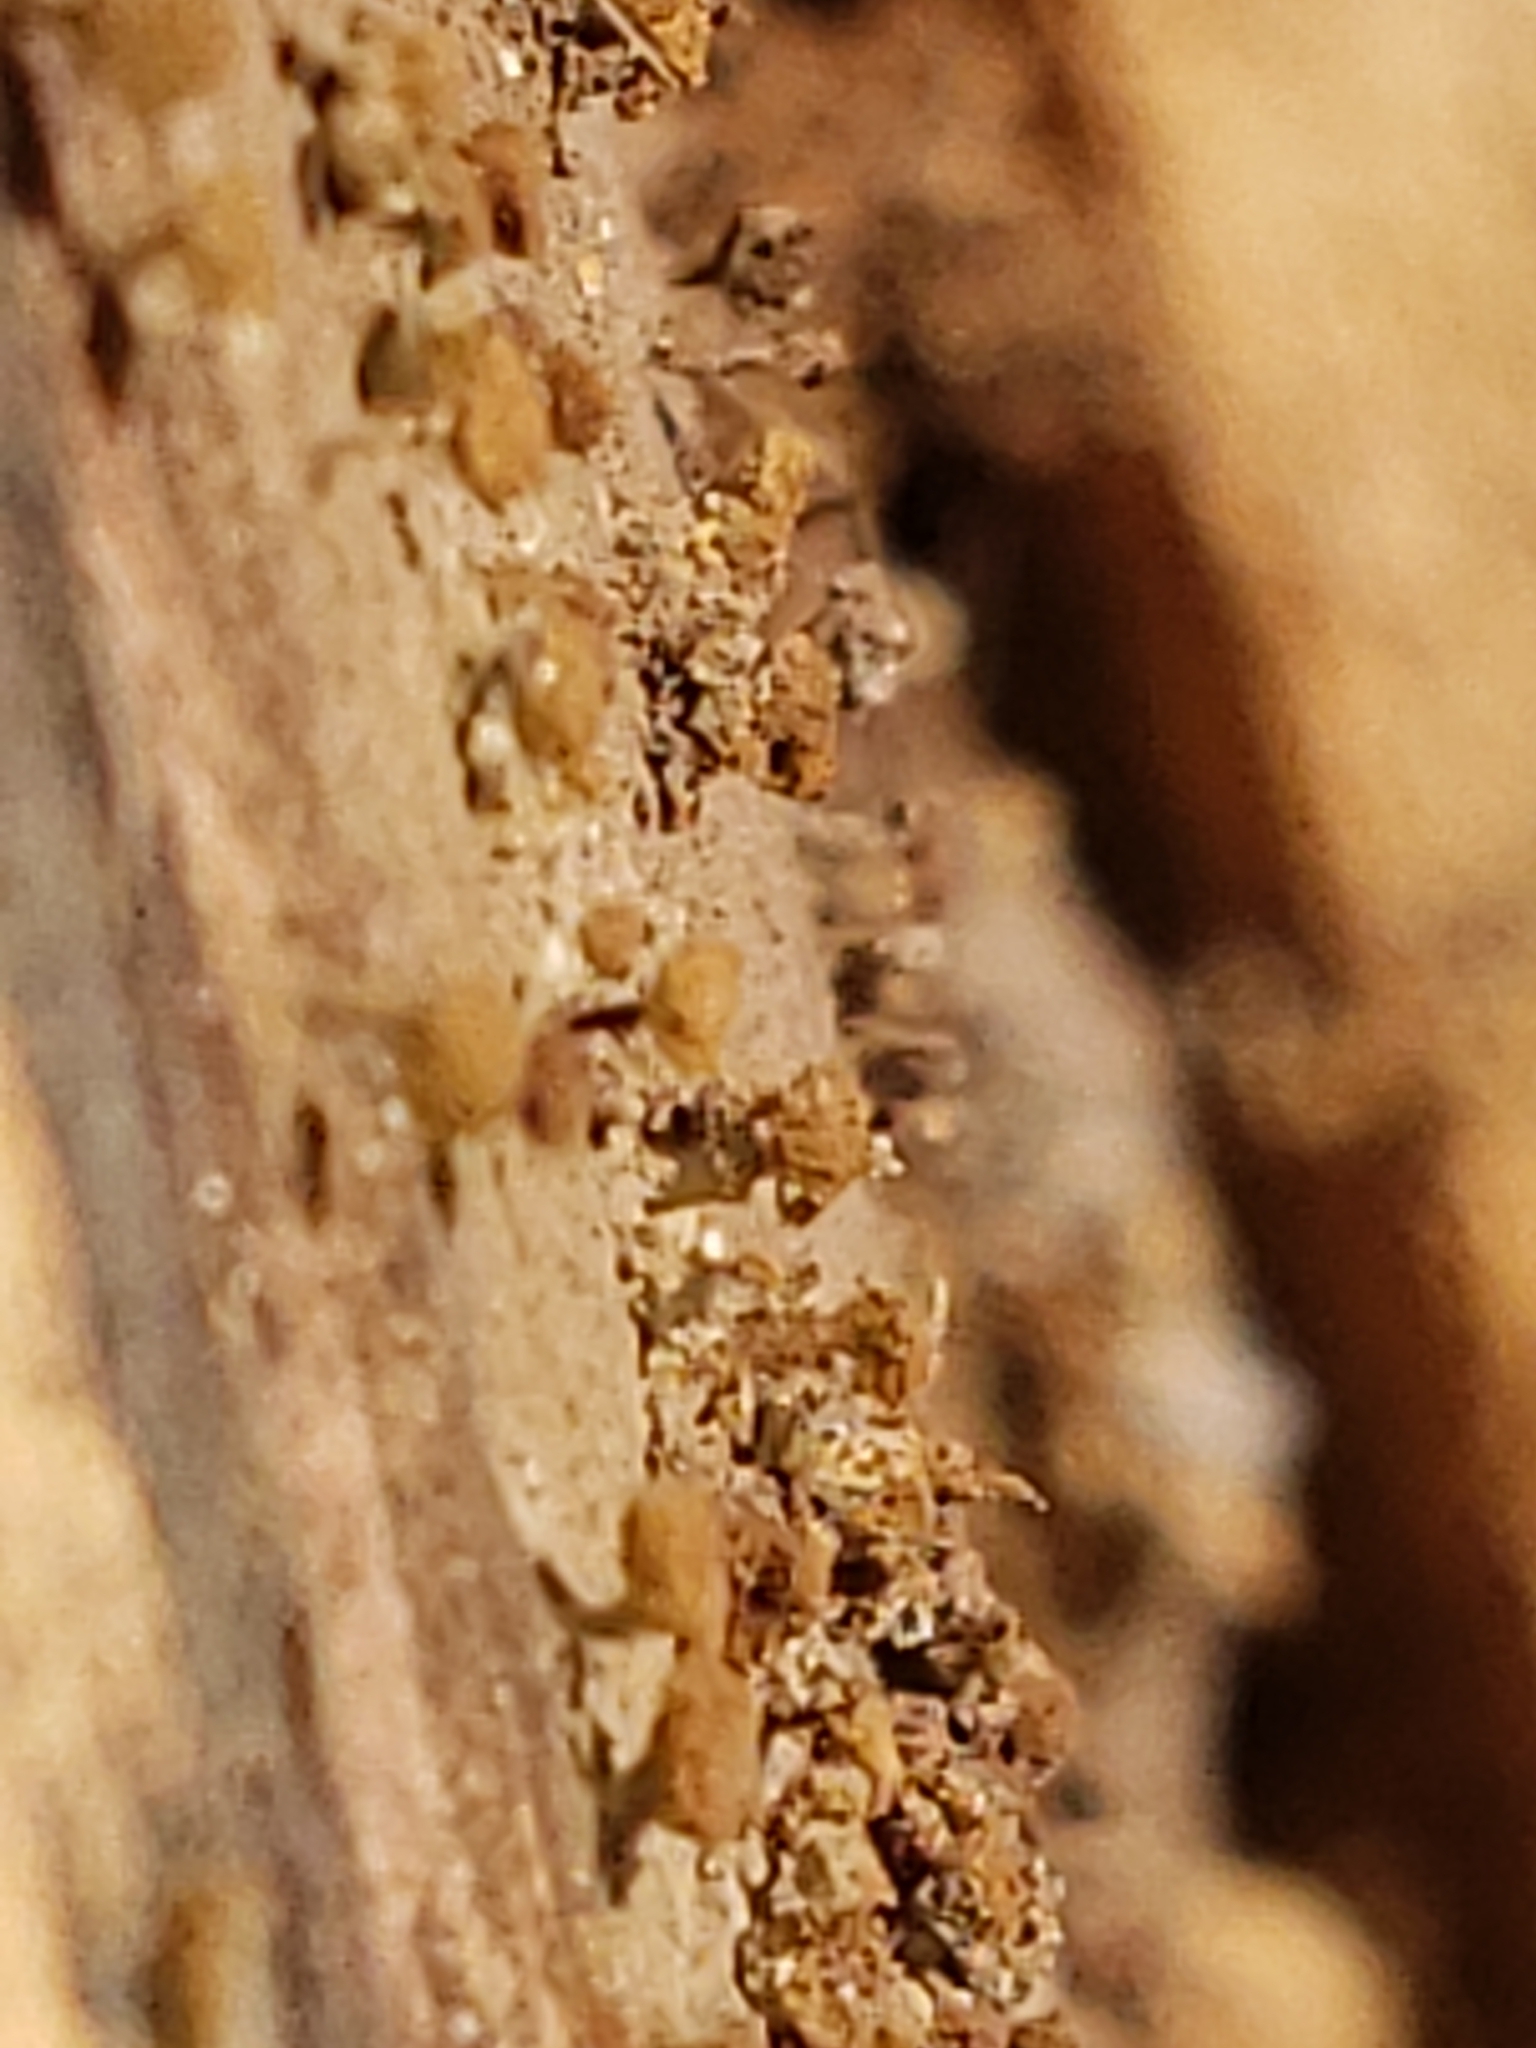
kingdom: Fungi
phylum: Basidiomycota
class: Atractiellomycetes
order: Atractiellales
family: Phleogenaceae
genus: Phleogena
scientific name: Phleogena faginea
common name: Fenugreek stalkball
